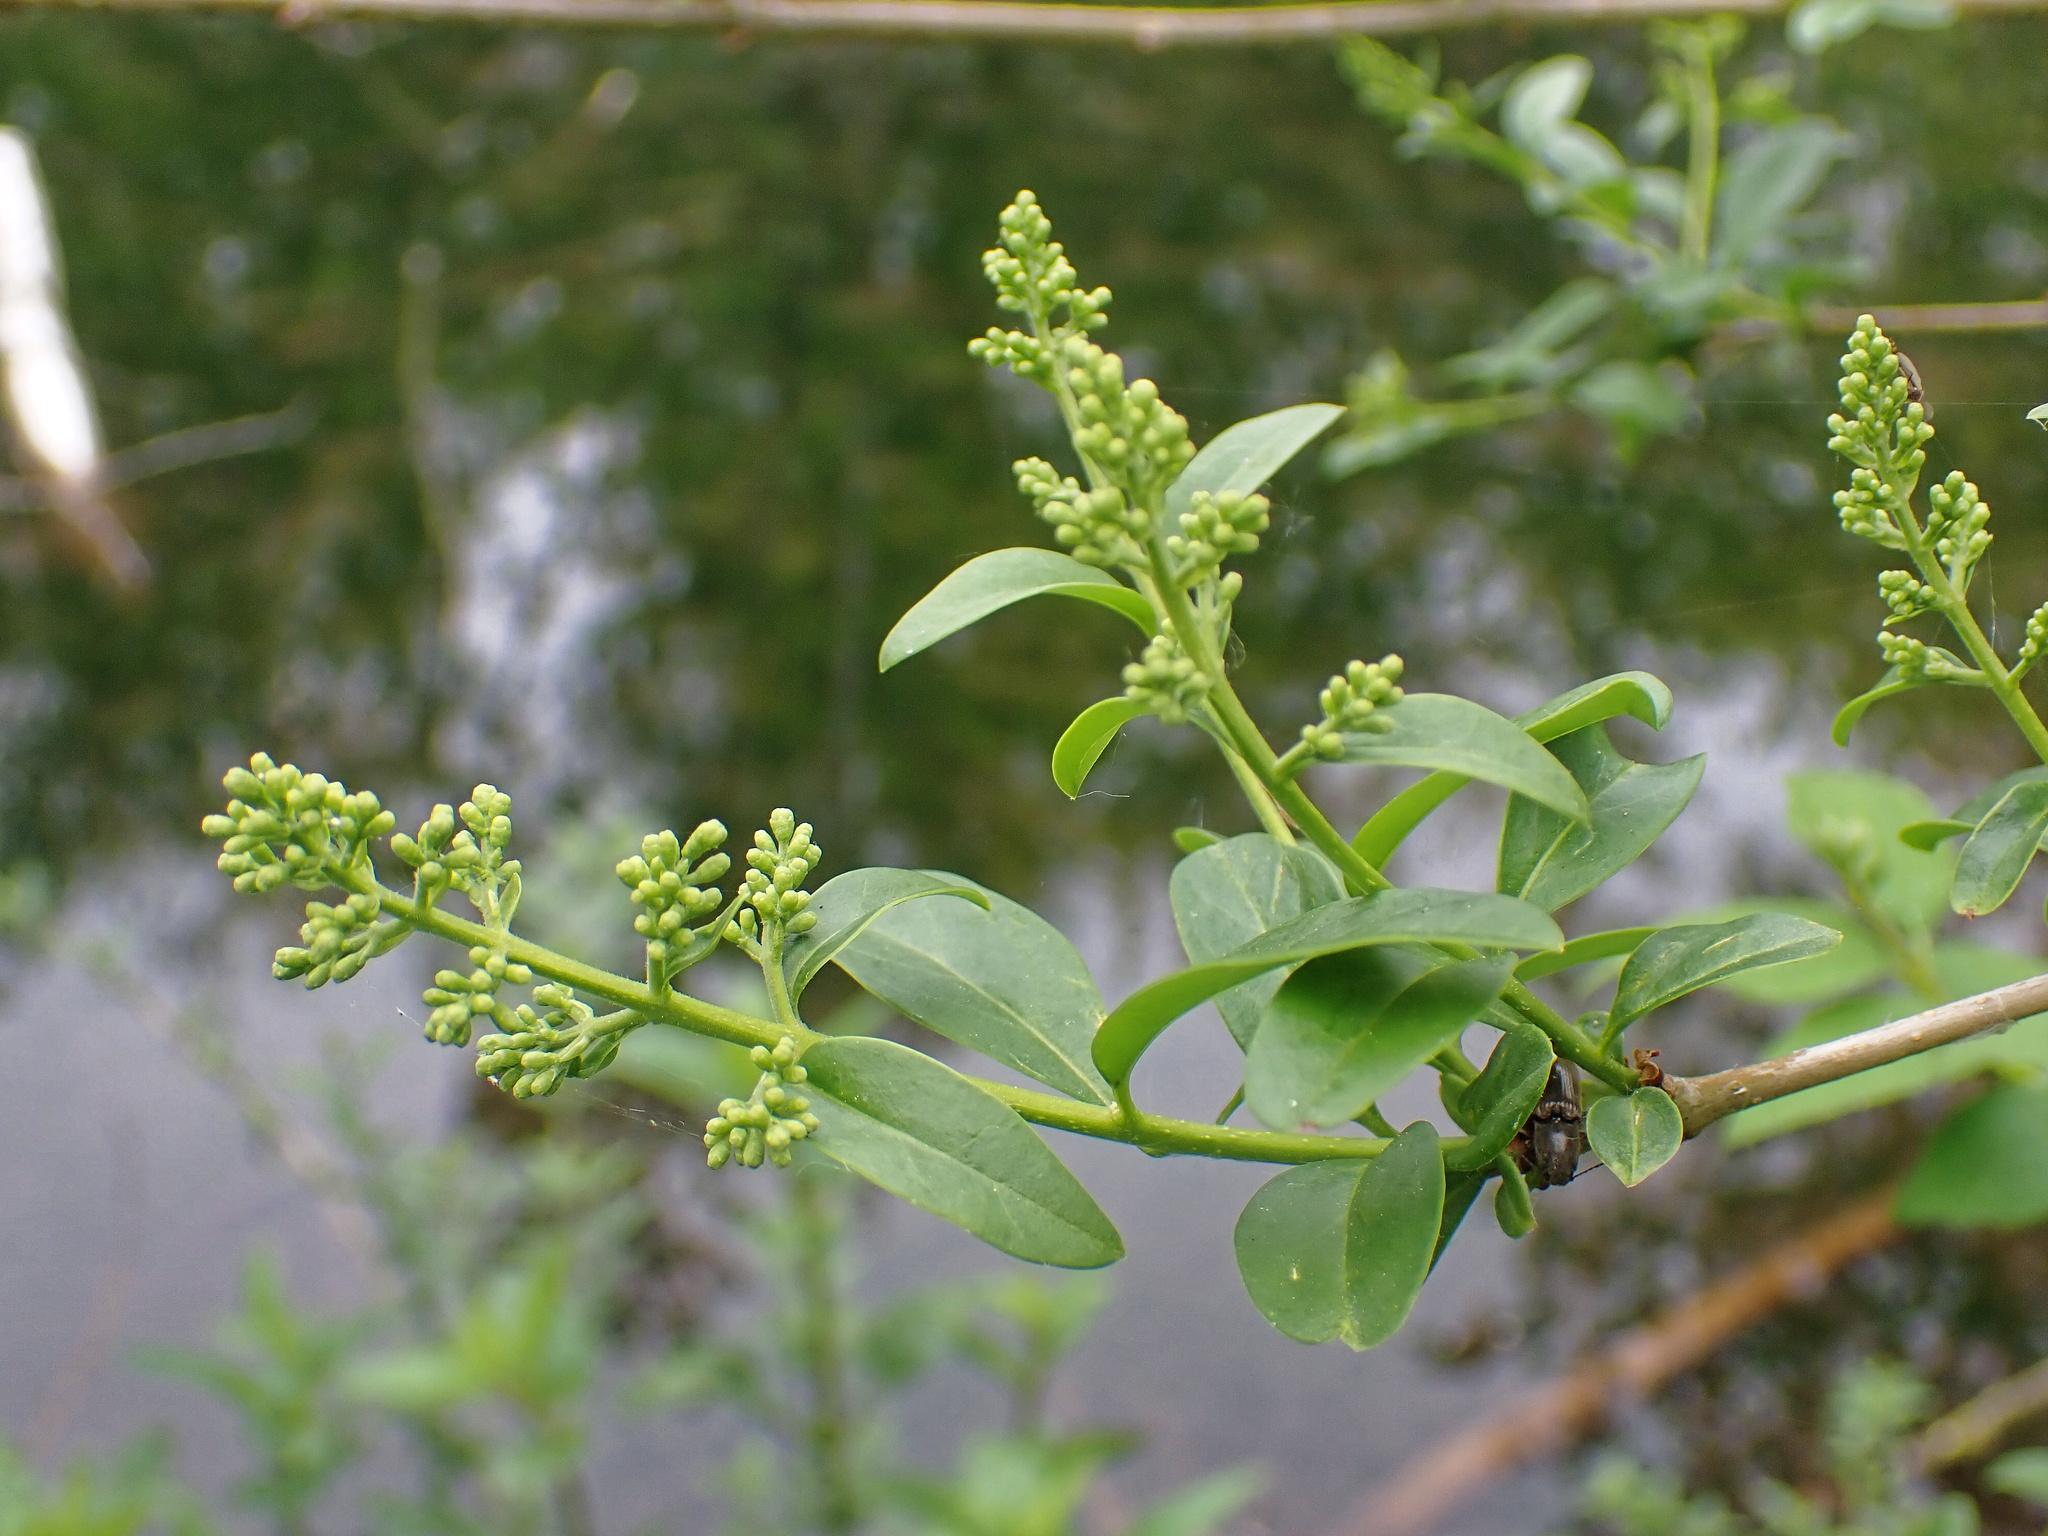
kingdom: Plantae
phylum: Tracheophyta
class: Magnoliopsida
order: Lamiales
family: Oleaceae
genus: Ligustrum
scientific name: Ligustrum vulgare
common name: Wild privet
